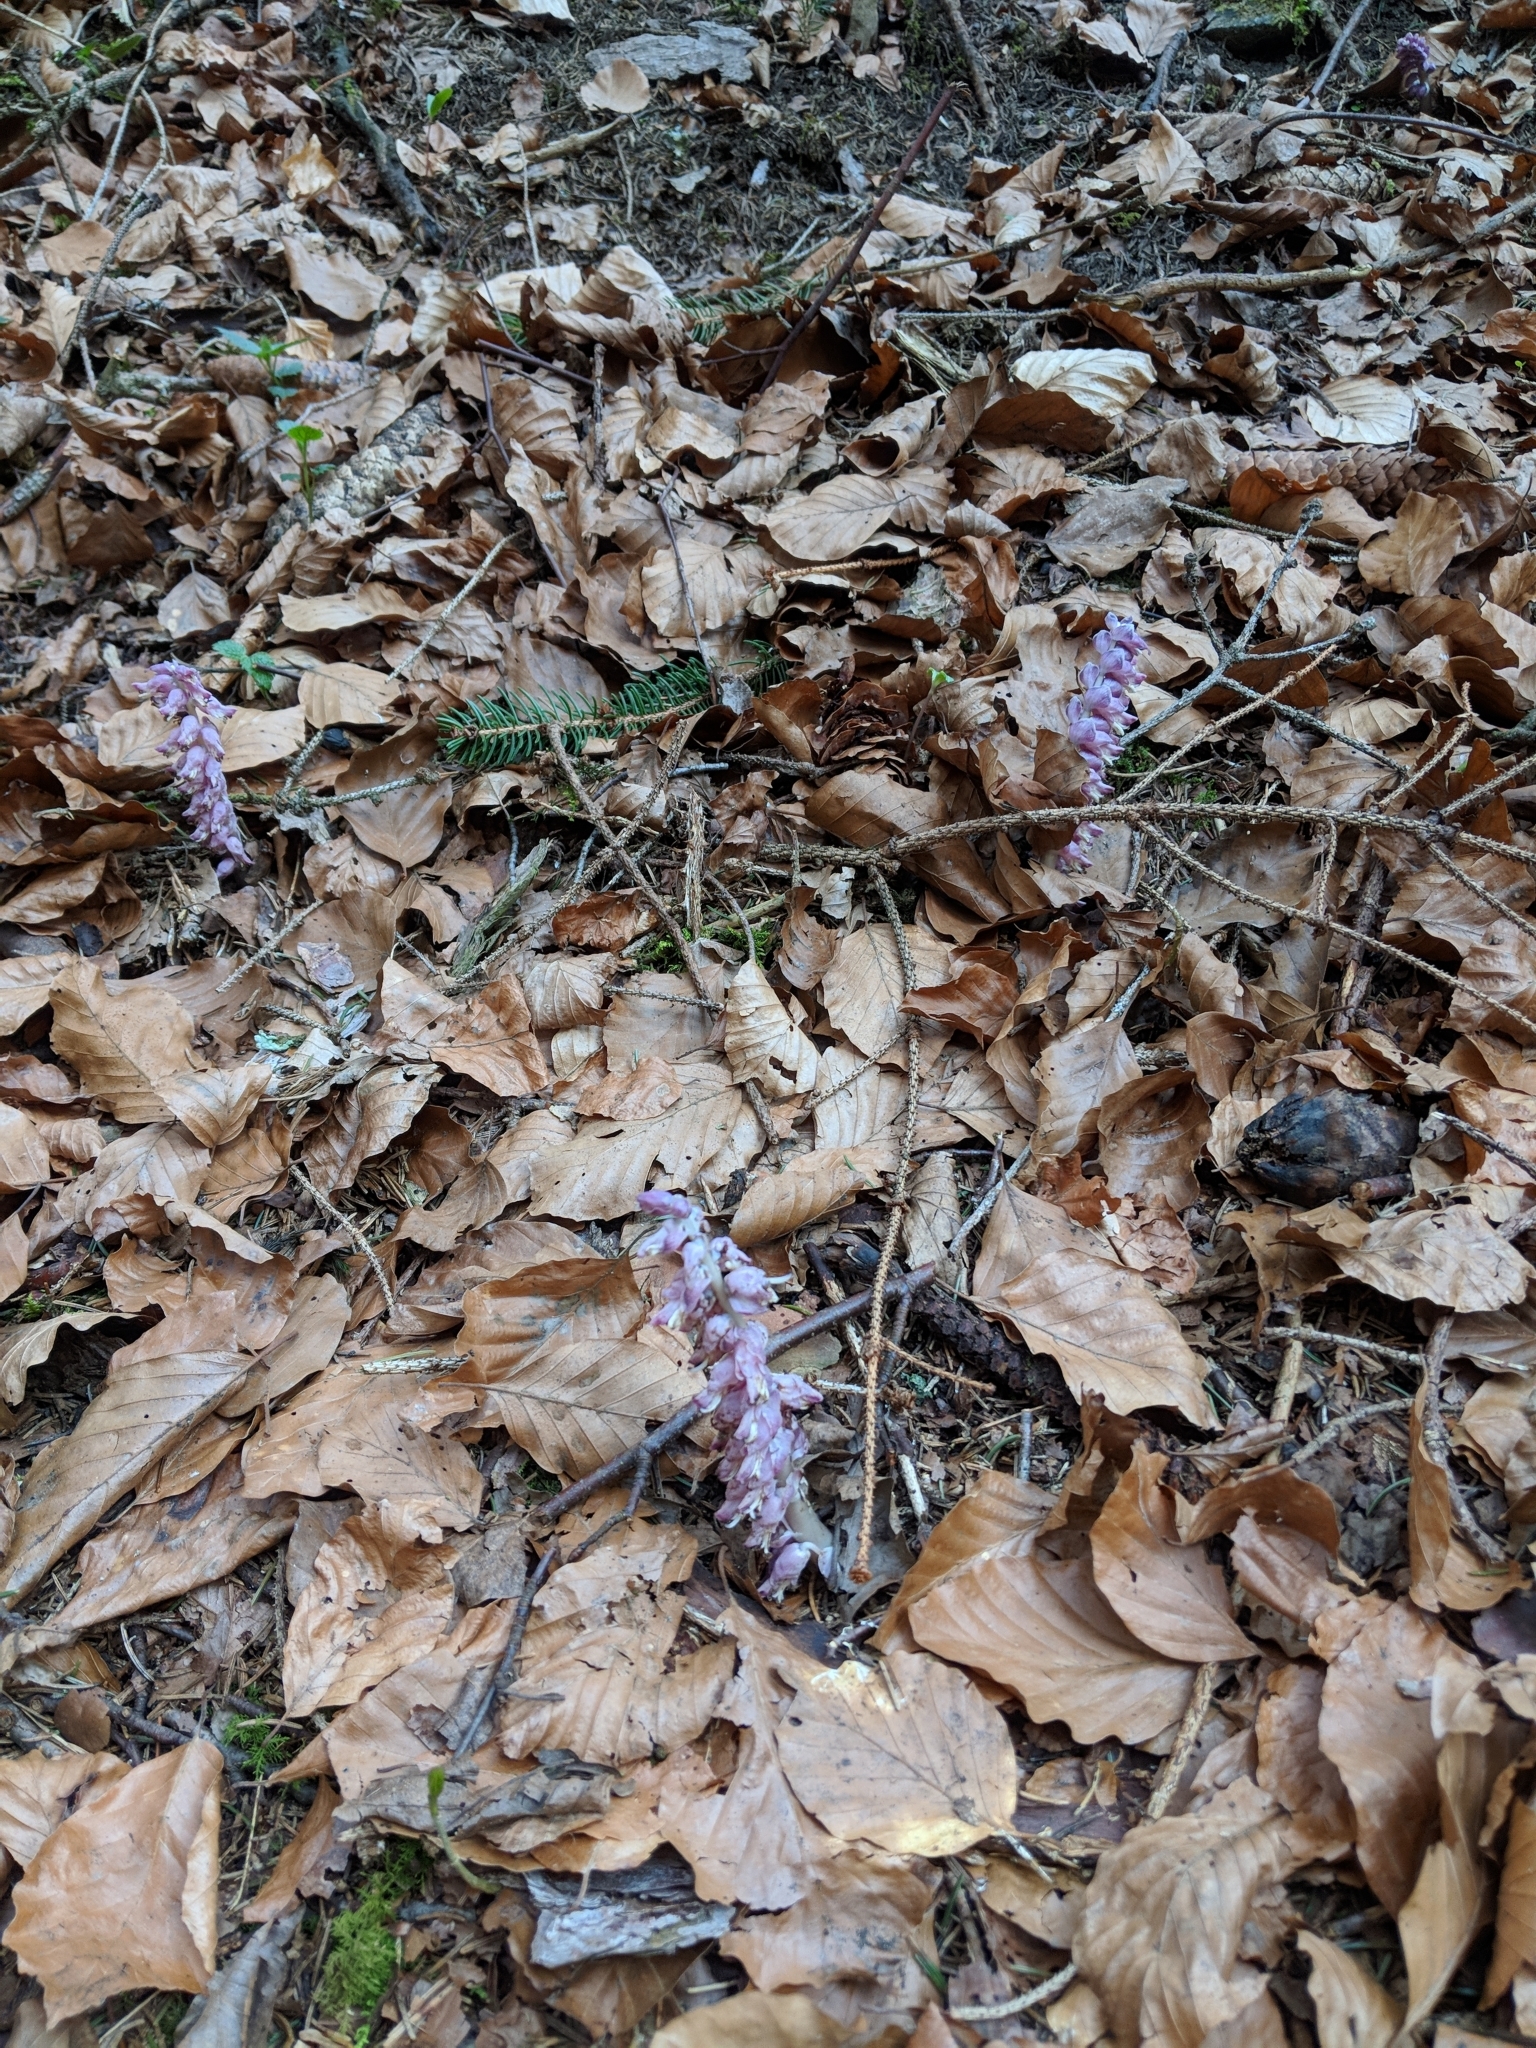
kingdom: Plantae
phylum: Tracheophyta
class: Magnoliopsida
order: Lamiales
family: Orobanchaceae
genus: Lathraea
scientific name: Lathraea squamaria
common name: Toothwort
